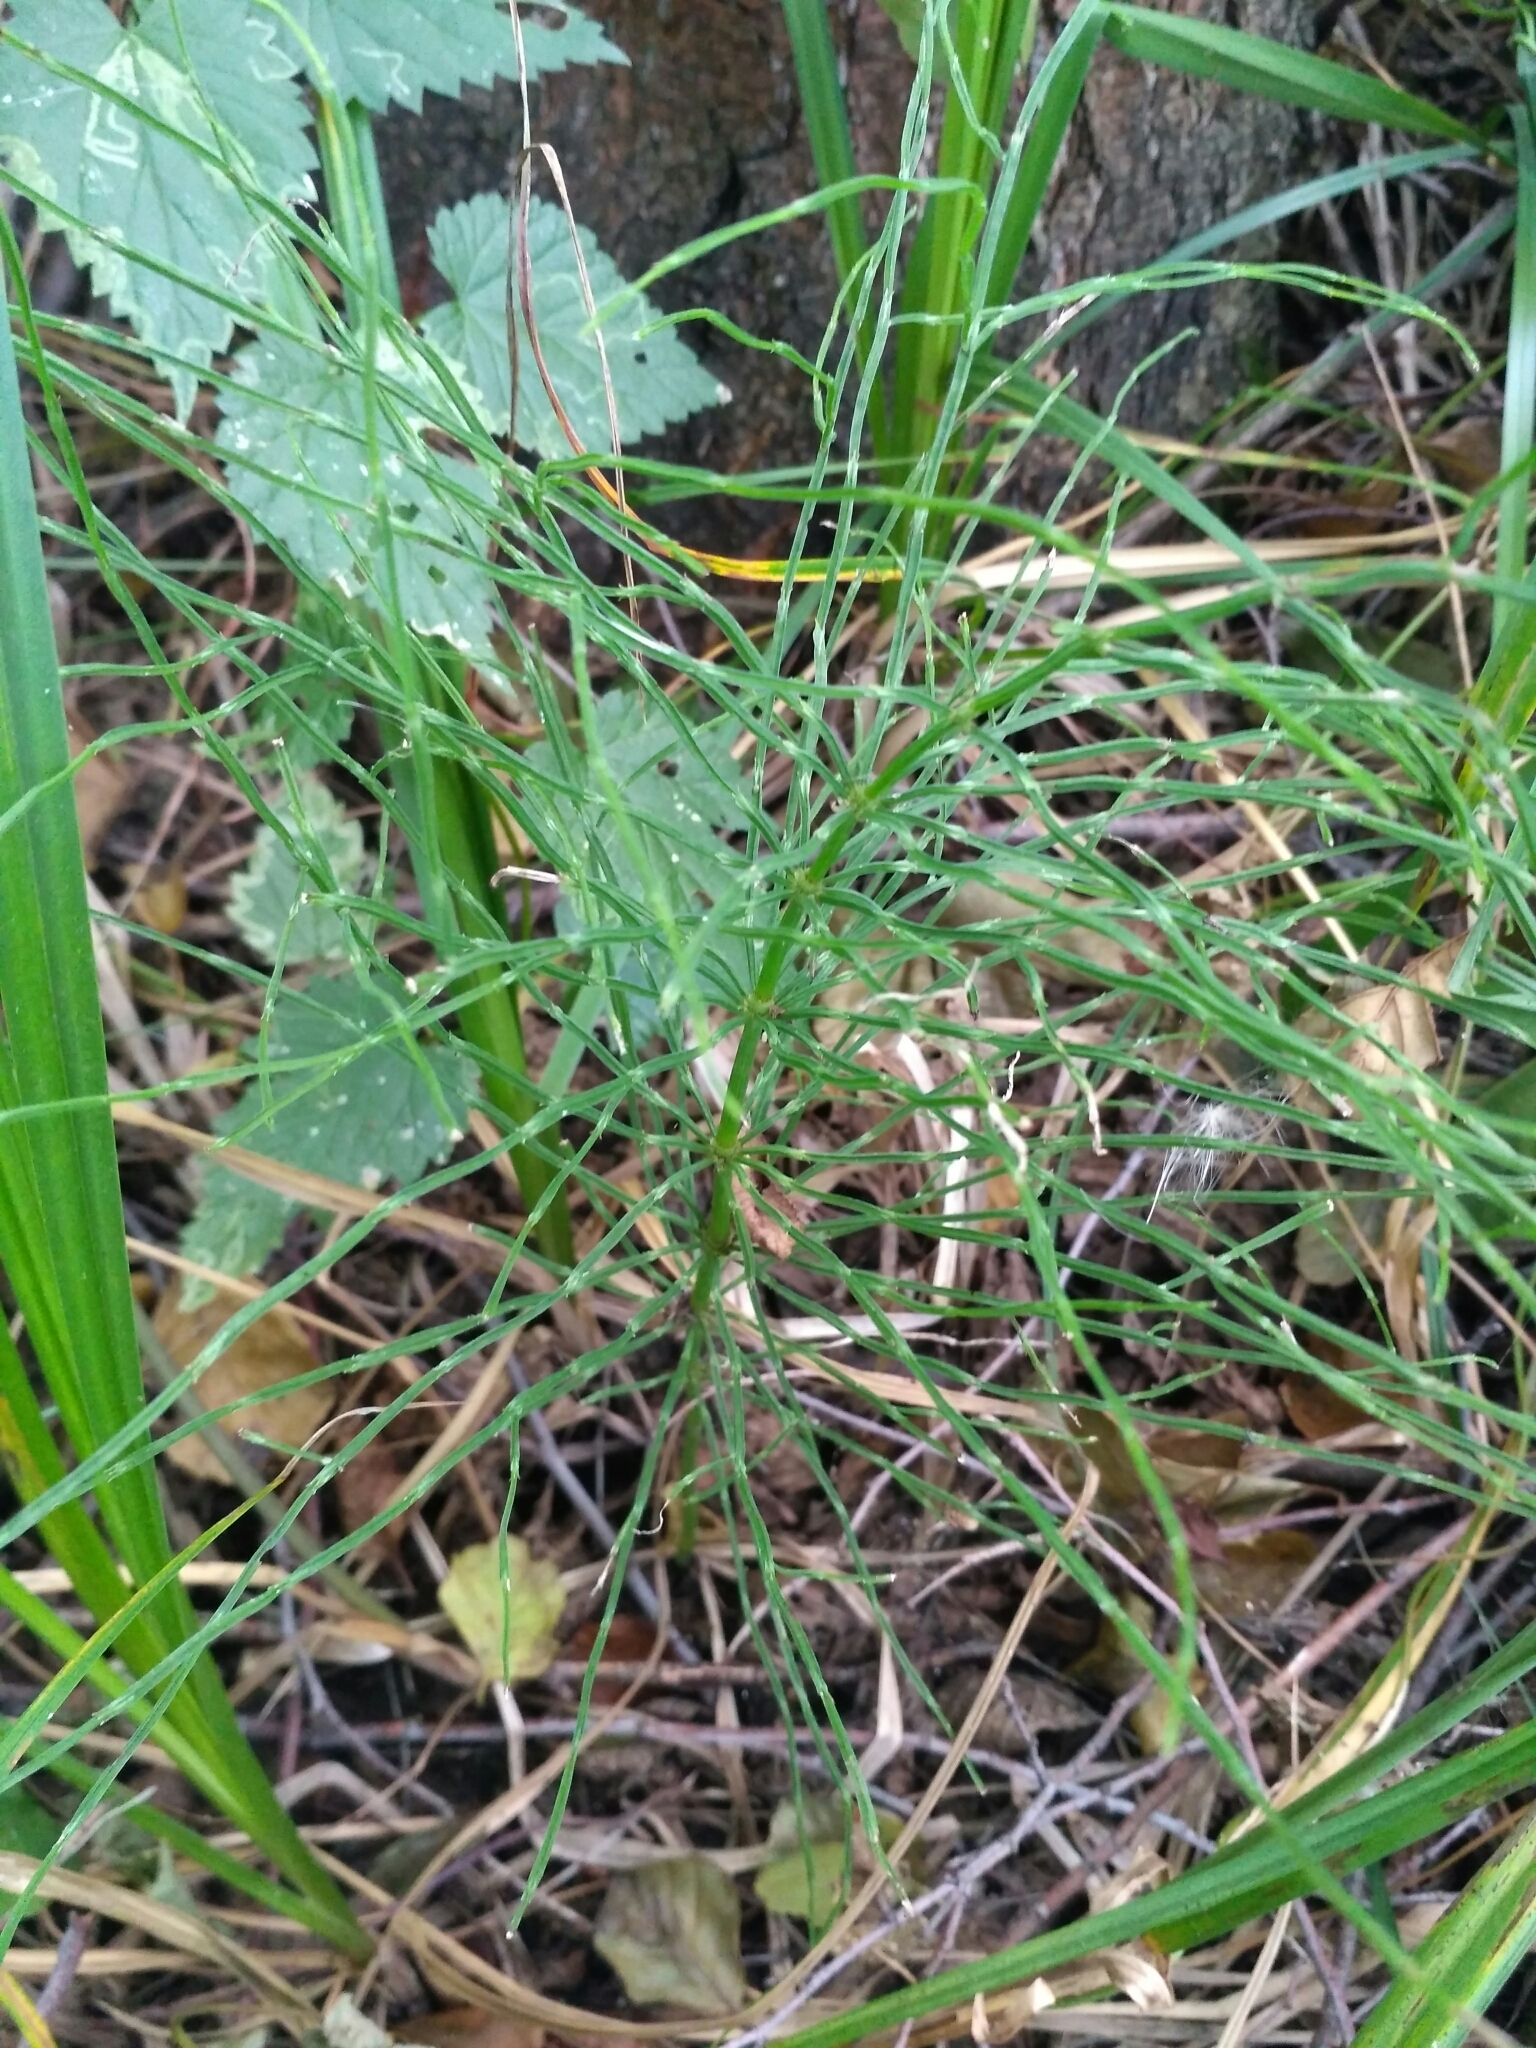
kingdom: Plantae
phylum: Tracheophyta
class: Polypodiopsida
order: Equisetales
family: Equisetaceae
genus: Equisetum
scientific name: Equisetum arvense
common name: Field horsetail
